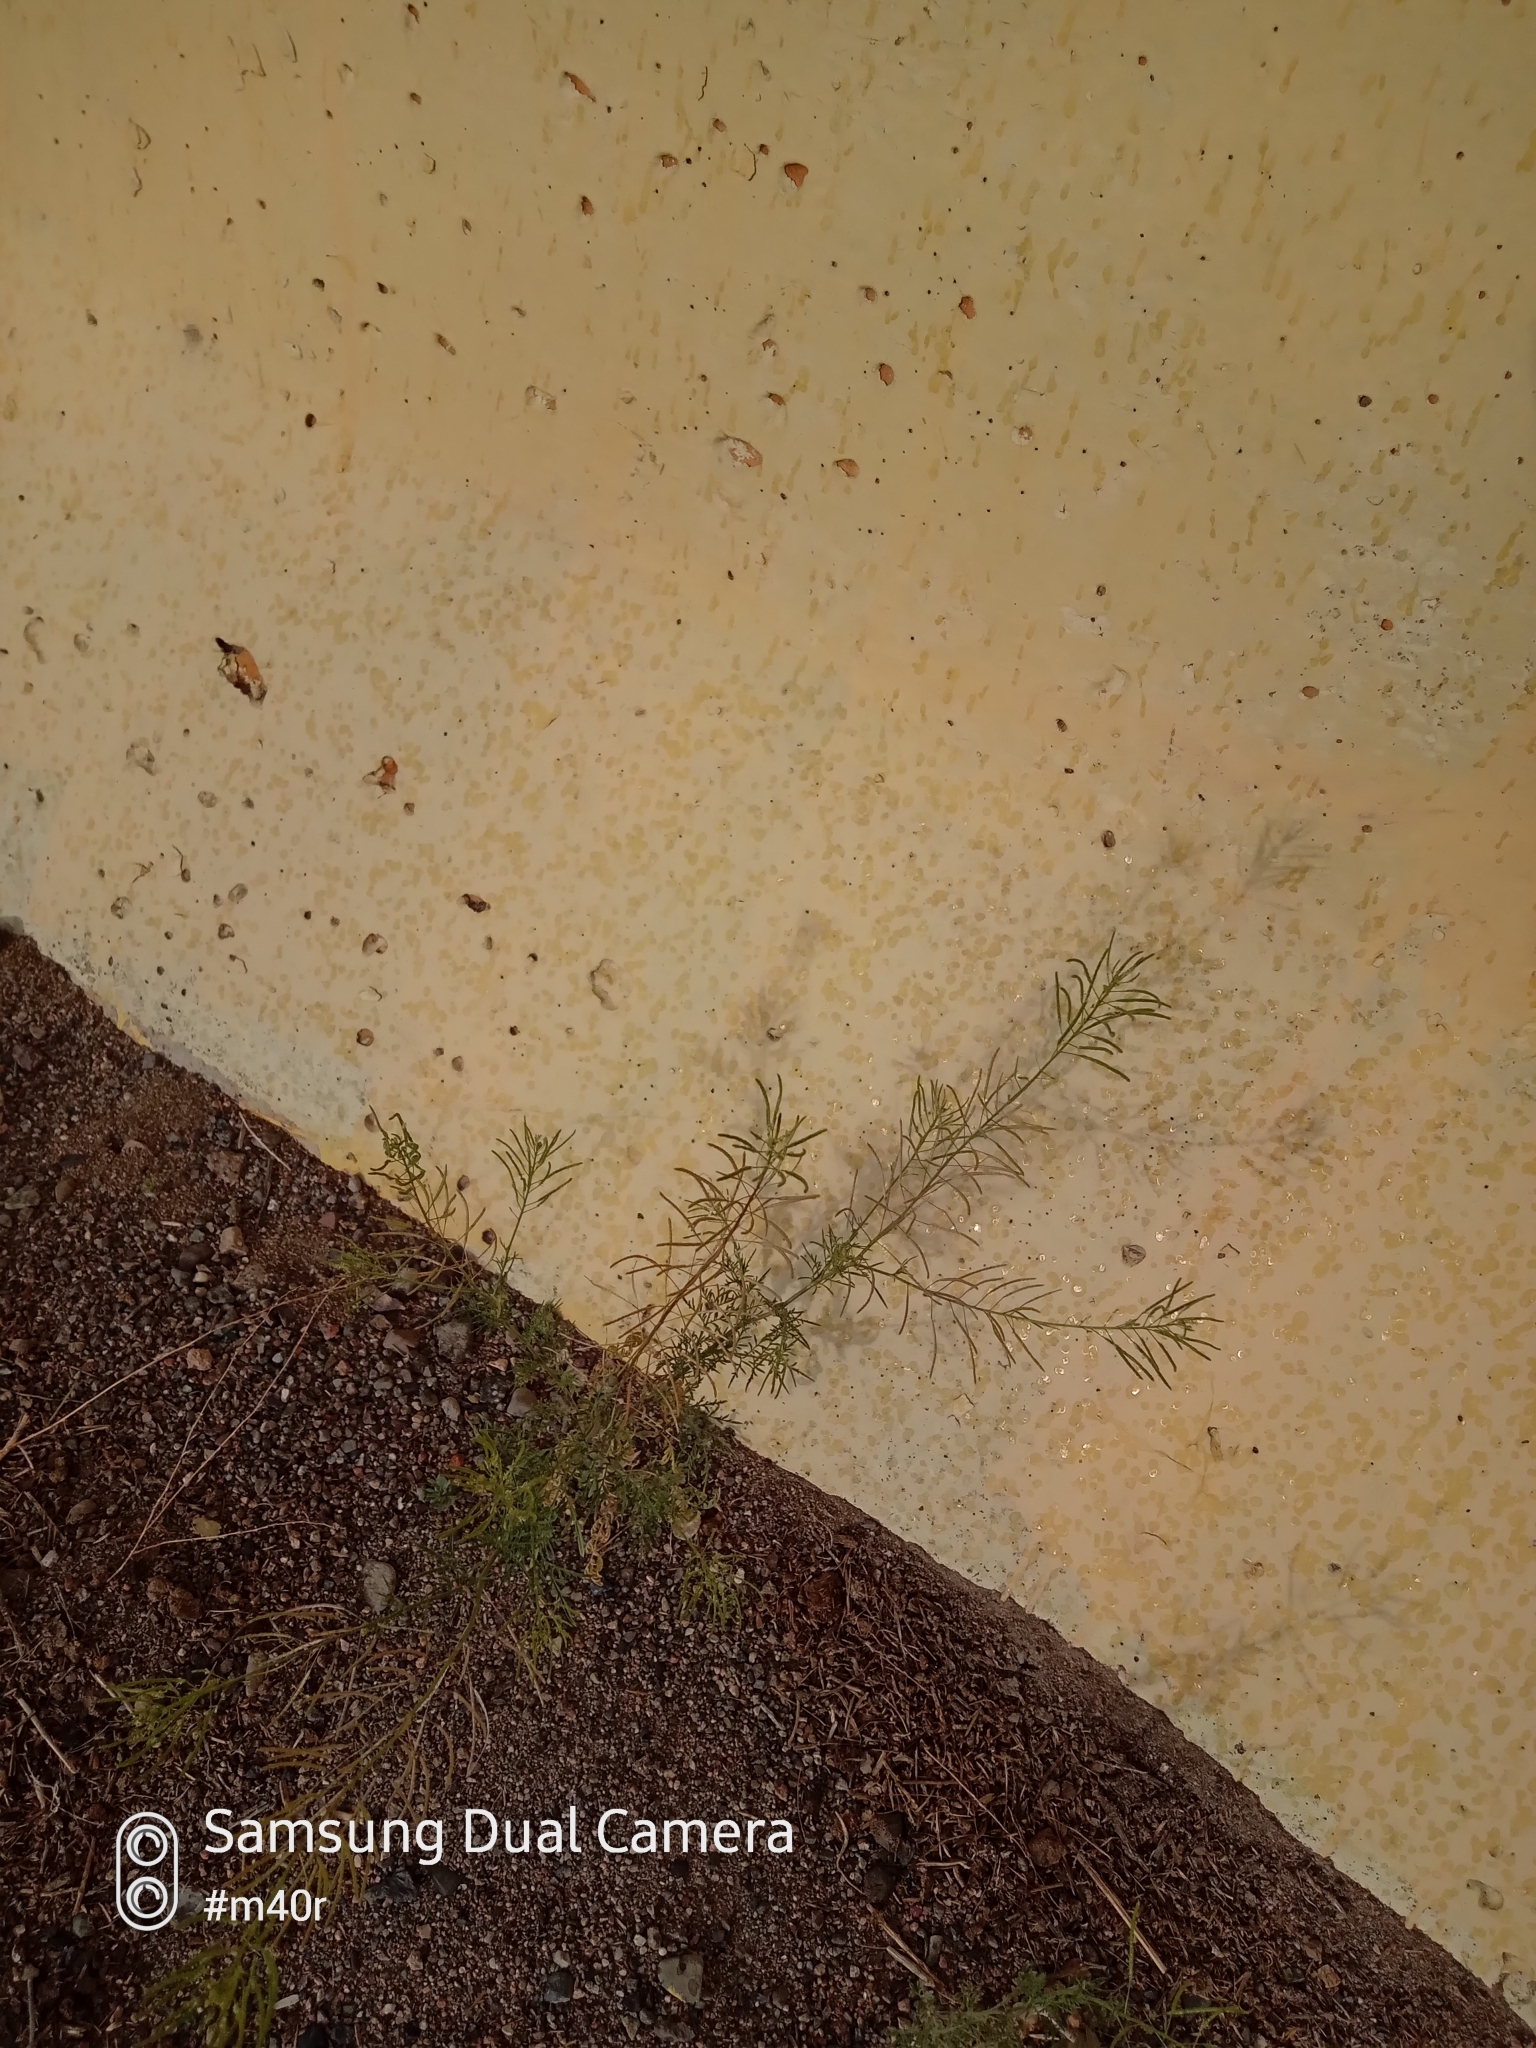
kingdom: Plantae
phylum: Tracheophyta
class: Magnoliopsida
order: Brassicales
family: Brassicaceae
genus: Descurainia
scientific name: Descurainia sophia
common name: Flixweed
